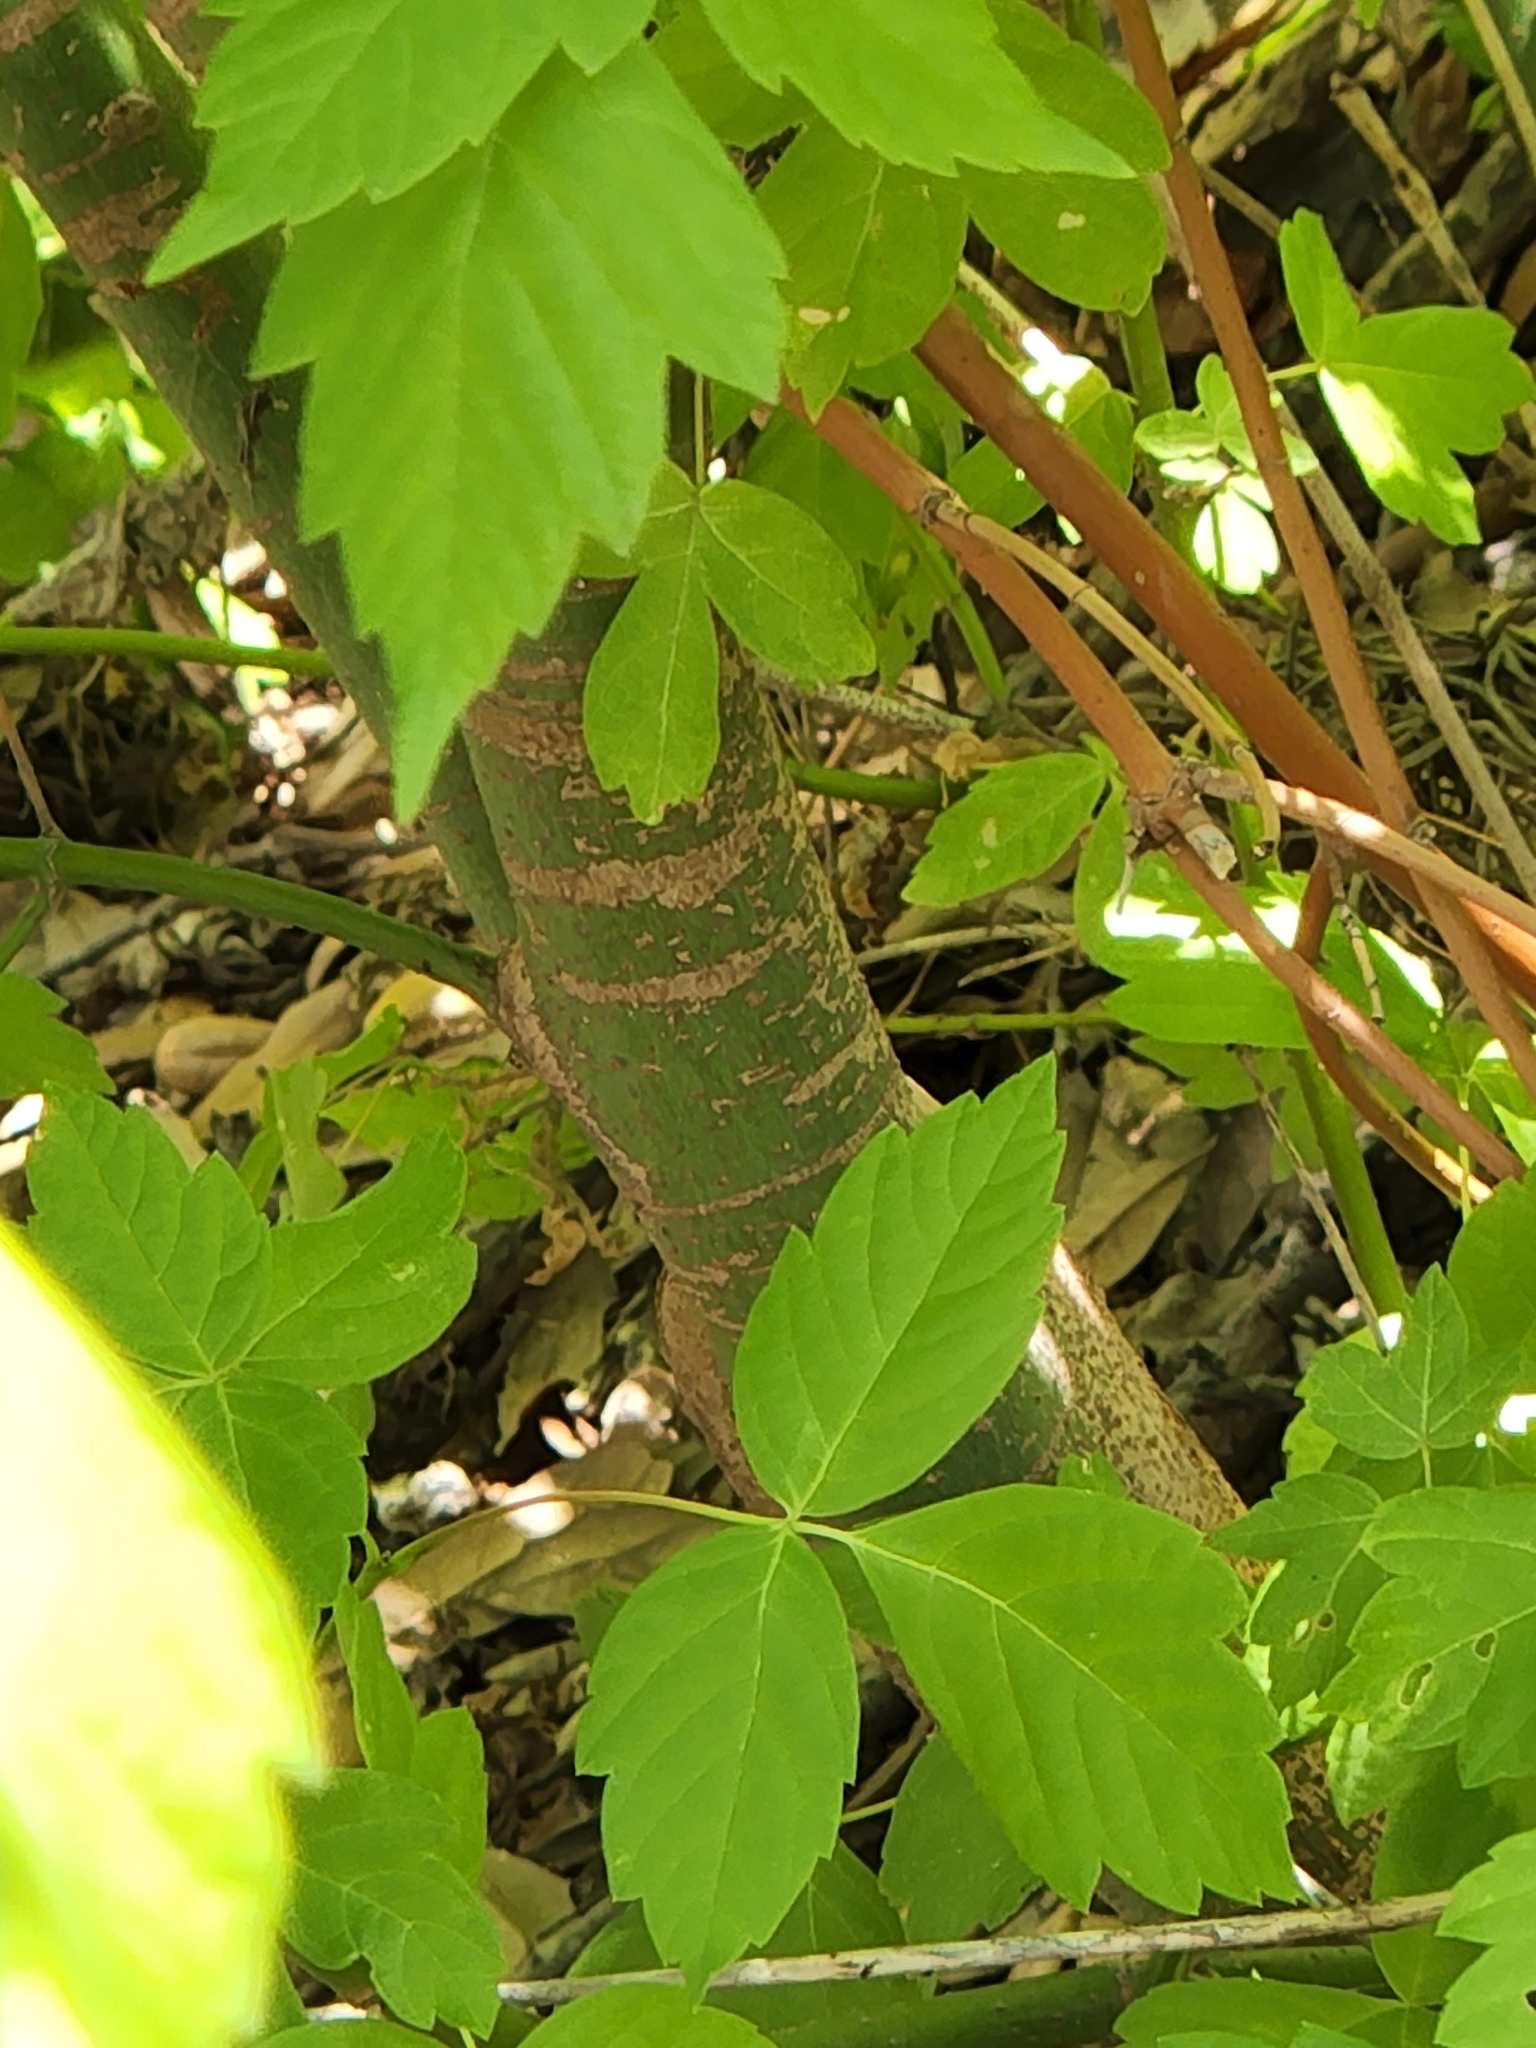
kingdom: Plantae
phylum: Tracheophyta
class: Magnoliopsida
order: Sapindales
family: Sapindaceae
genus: Acer
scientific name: Acer negundo
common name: Ashleaf maple
